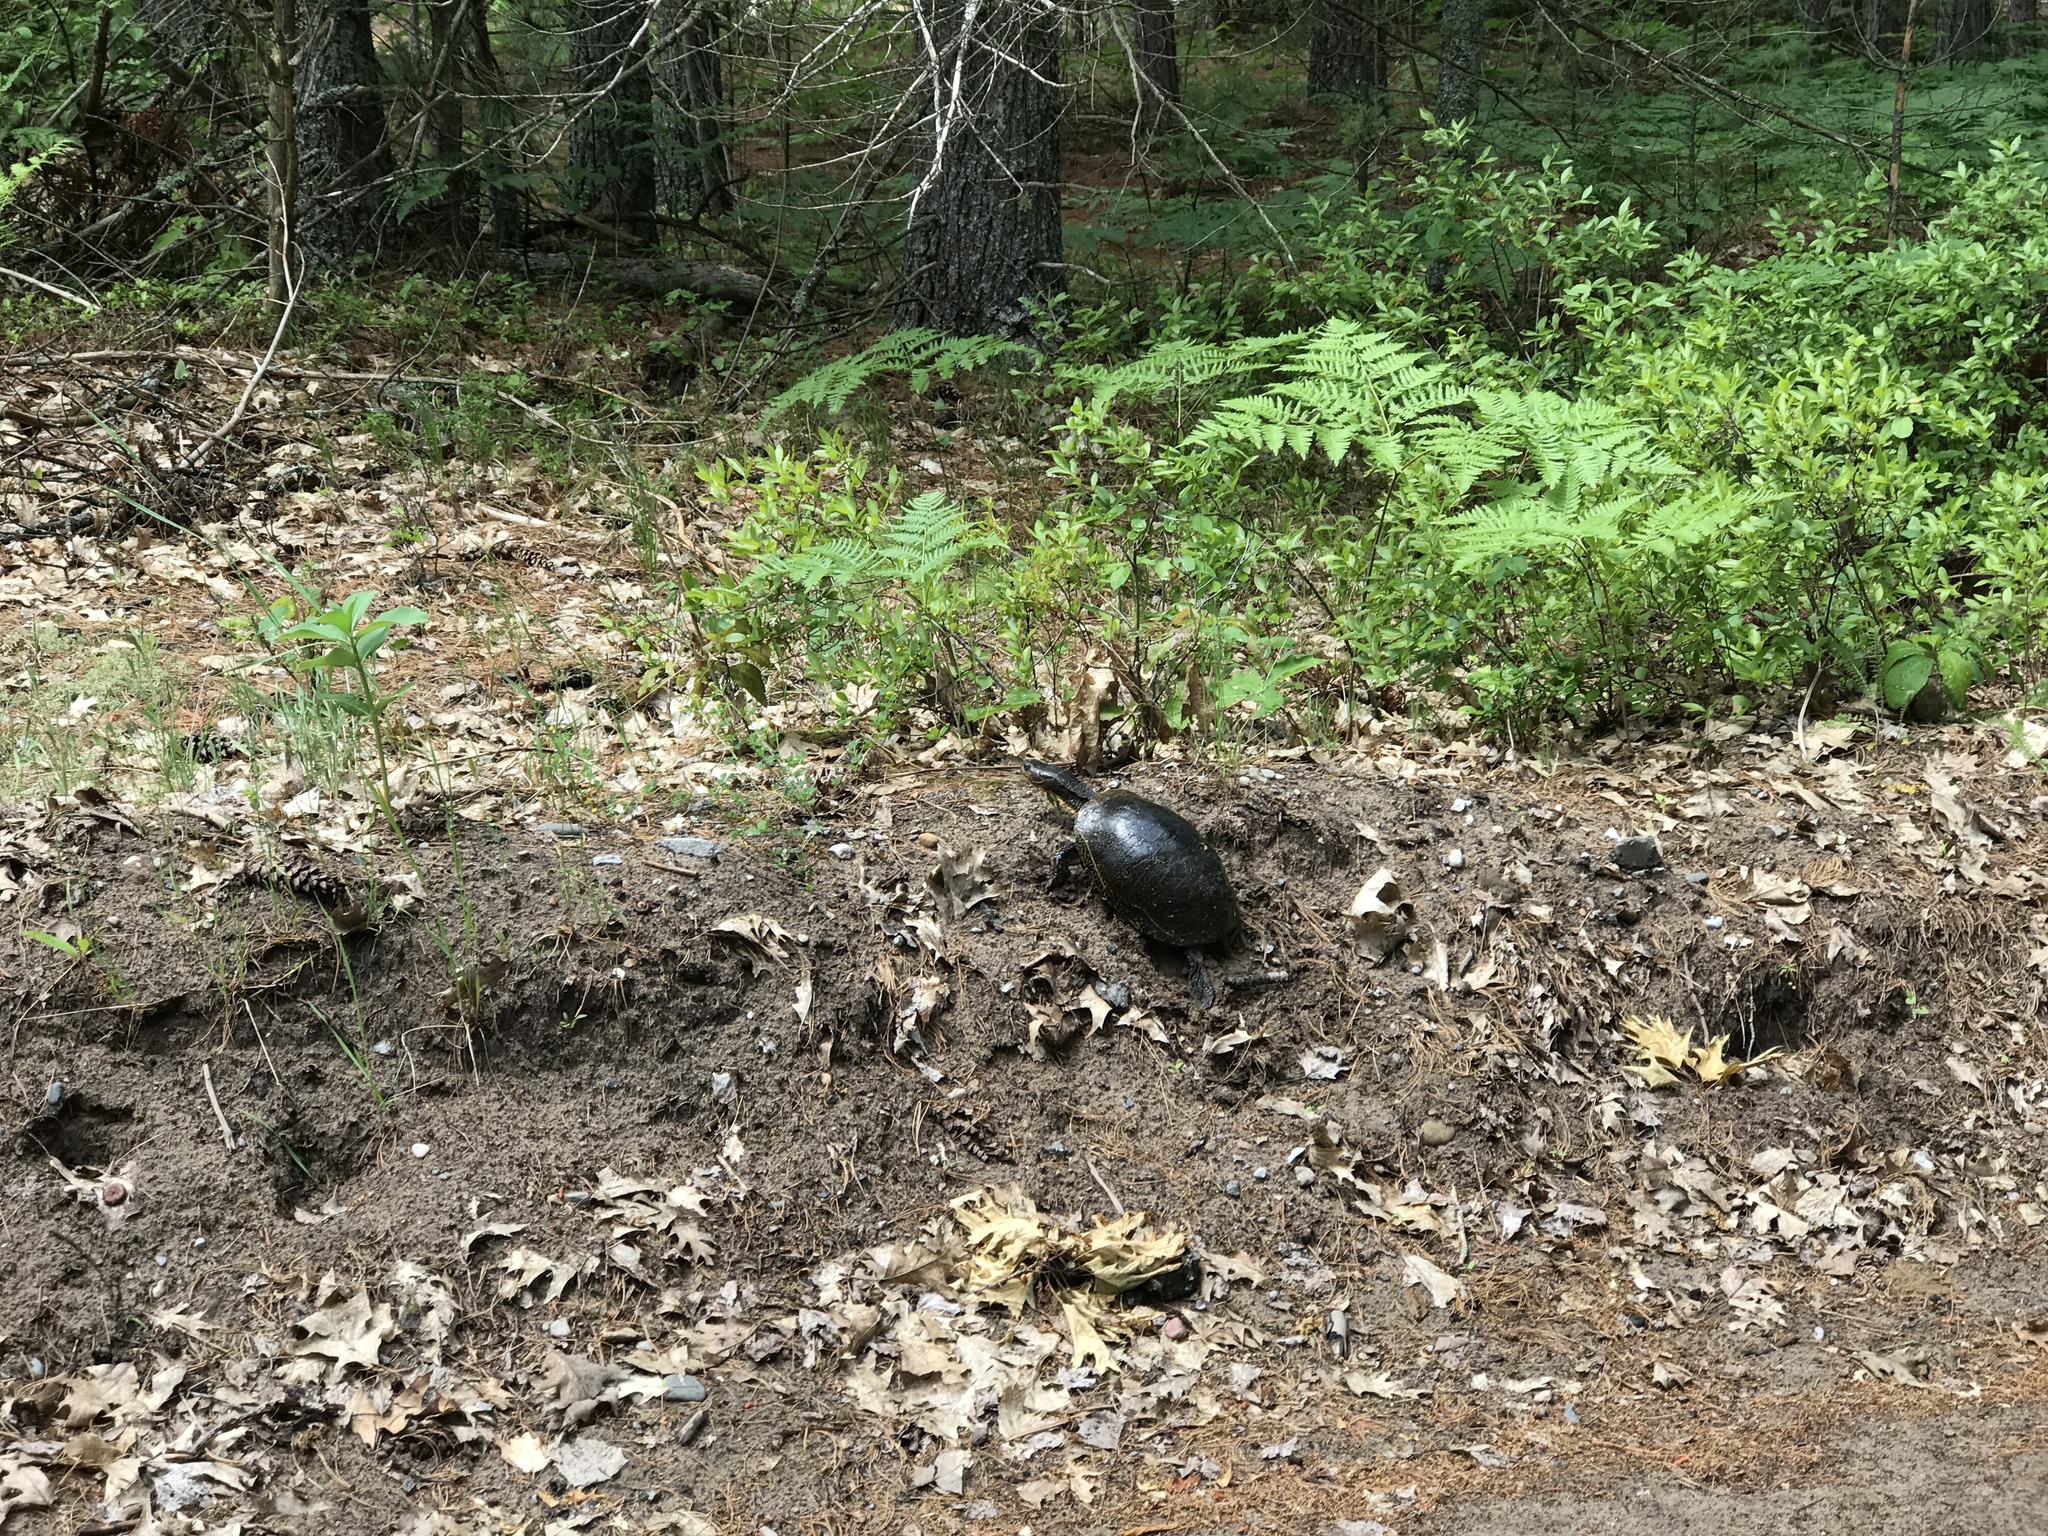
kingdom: Animalia
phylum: Chordata
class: Testudines
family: Emydidae
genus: Emys
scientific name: Emys blandingii
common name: Blanding's turtle
